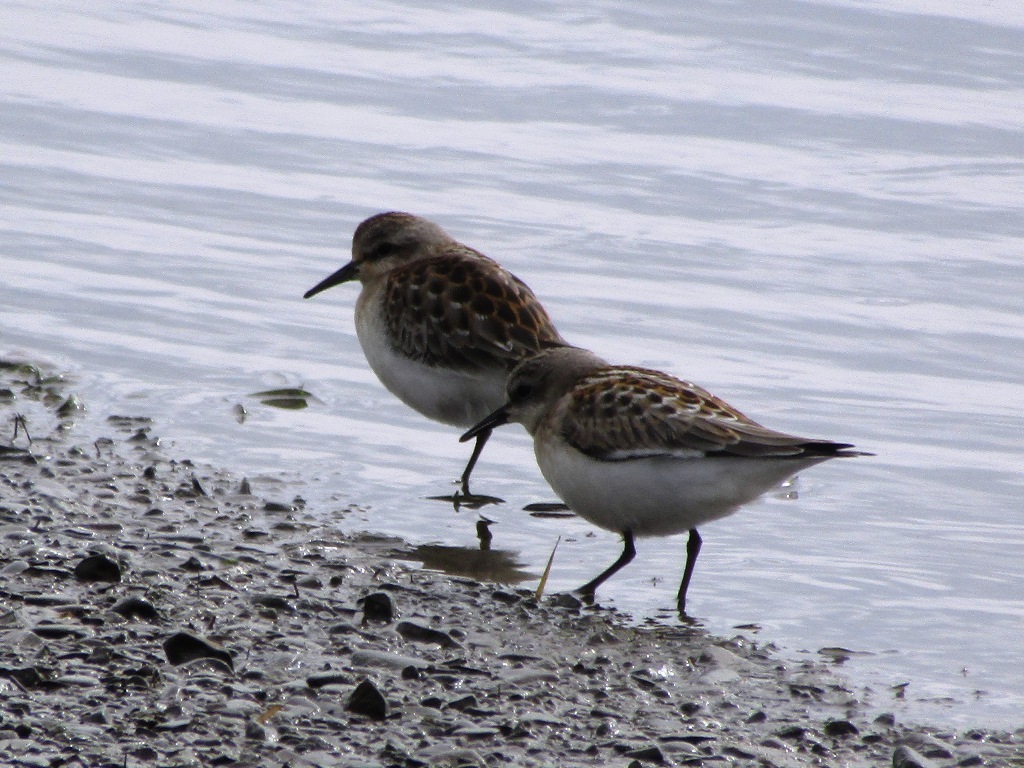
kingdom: Animalia
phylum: Chordata
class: Aves
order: Charadriiformes
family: Scolopacidae
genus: Calidris
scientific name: Calidris ruficollis
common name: Red-necked stint
